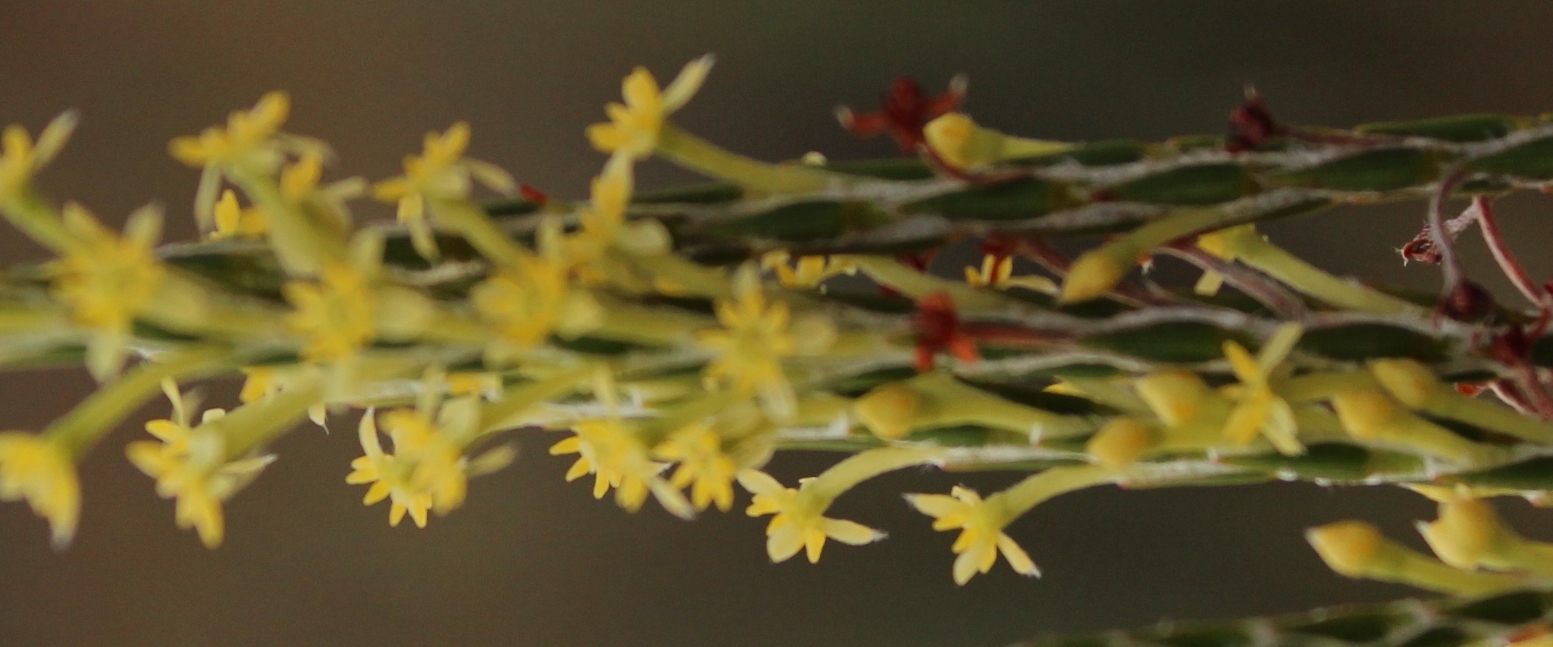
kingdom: Plantae
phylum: Tracheophyta
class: Magnoliopsida
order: Malvales
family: Thymelaeaceae
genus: Struthiola
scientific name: Struthiola ciliata
